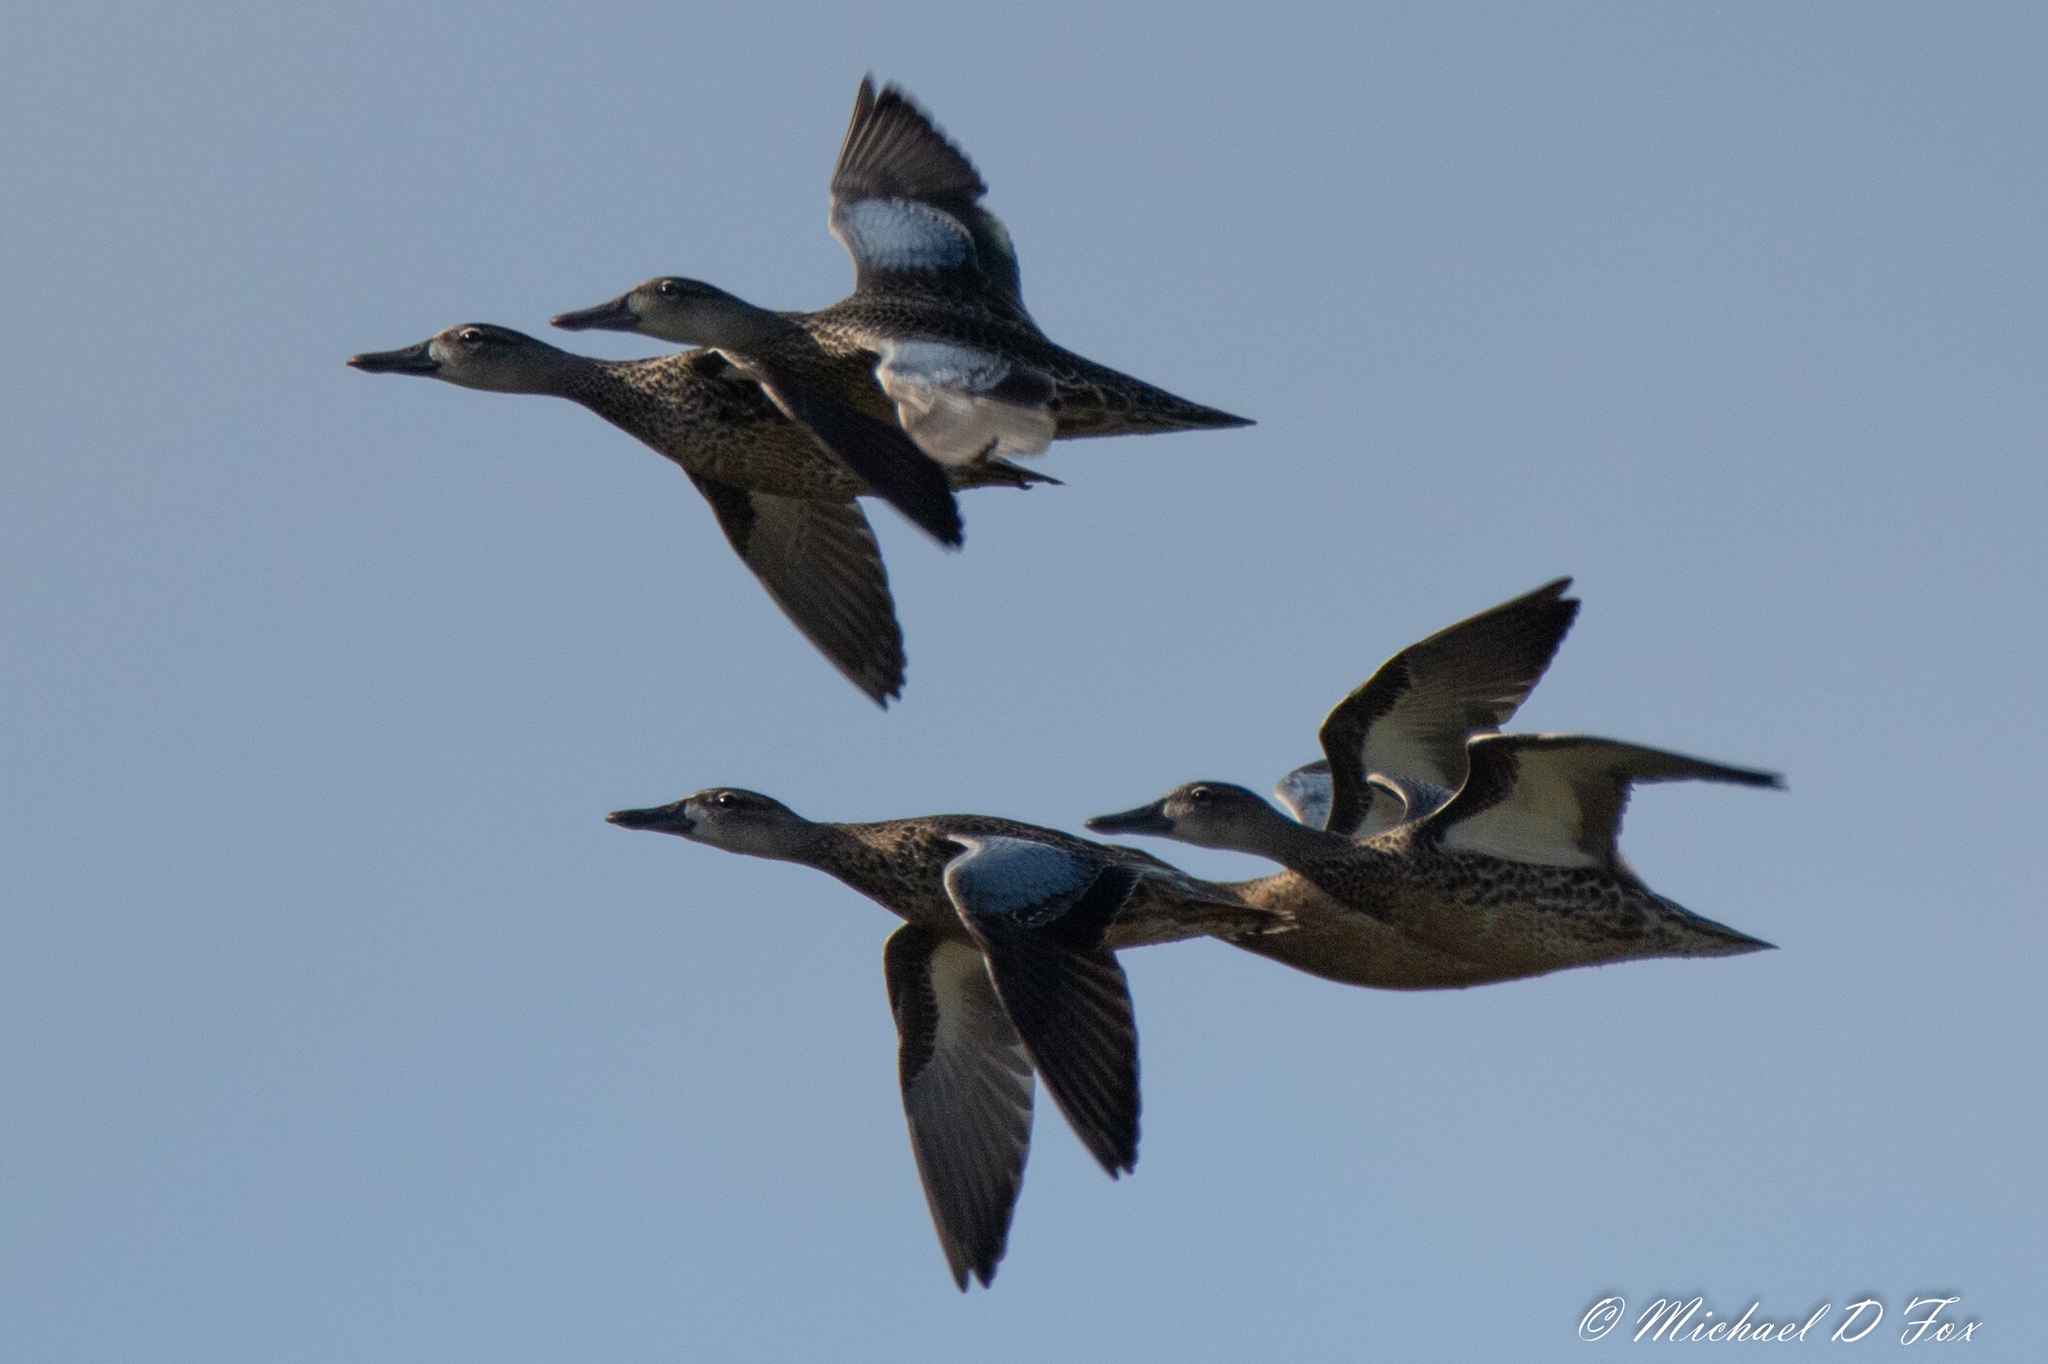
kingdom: Animalia
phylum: Chordata
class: Aves
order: Anseriformes
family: Anatidae
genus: Spatula
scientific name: Spatula discors
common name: Blue-winged teal
